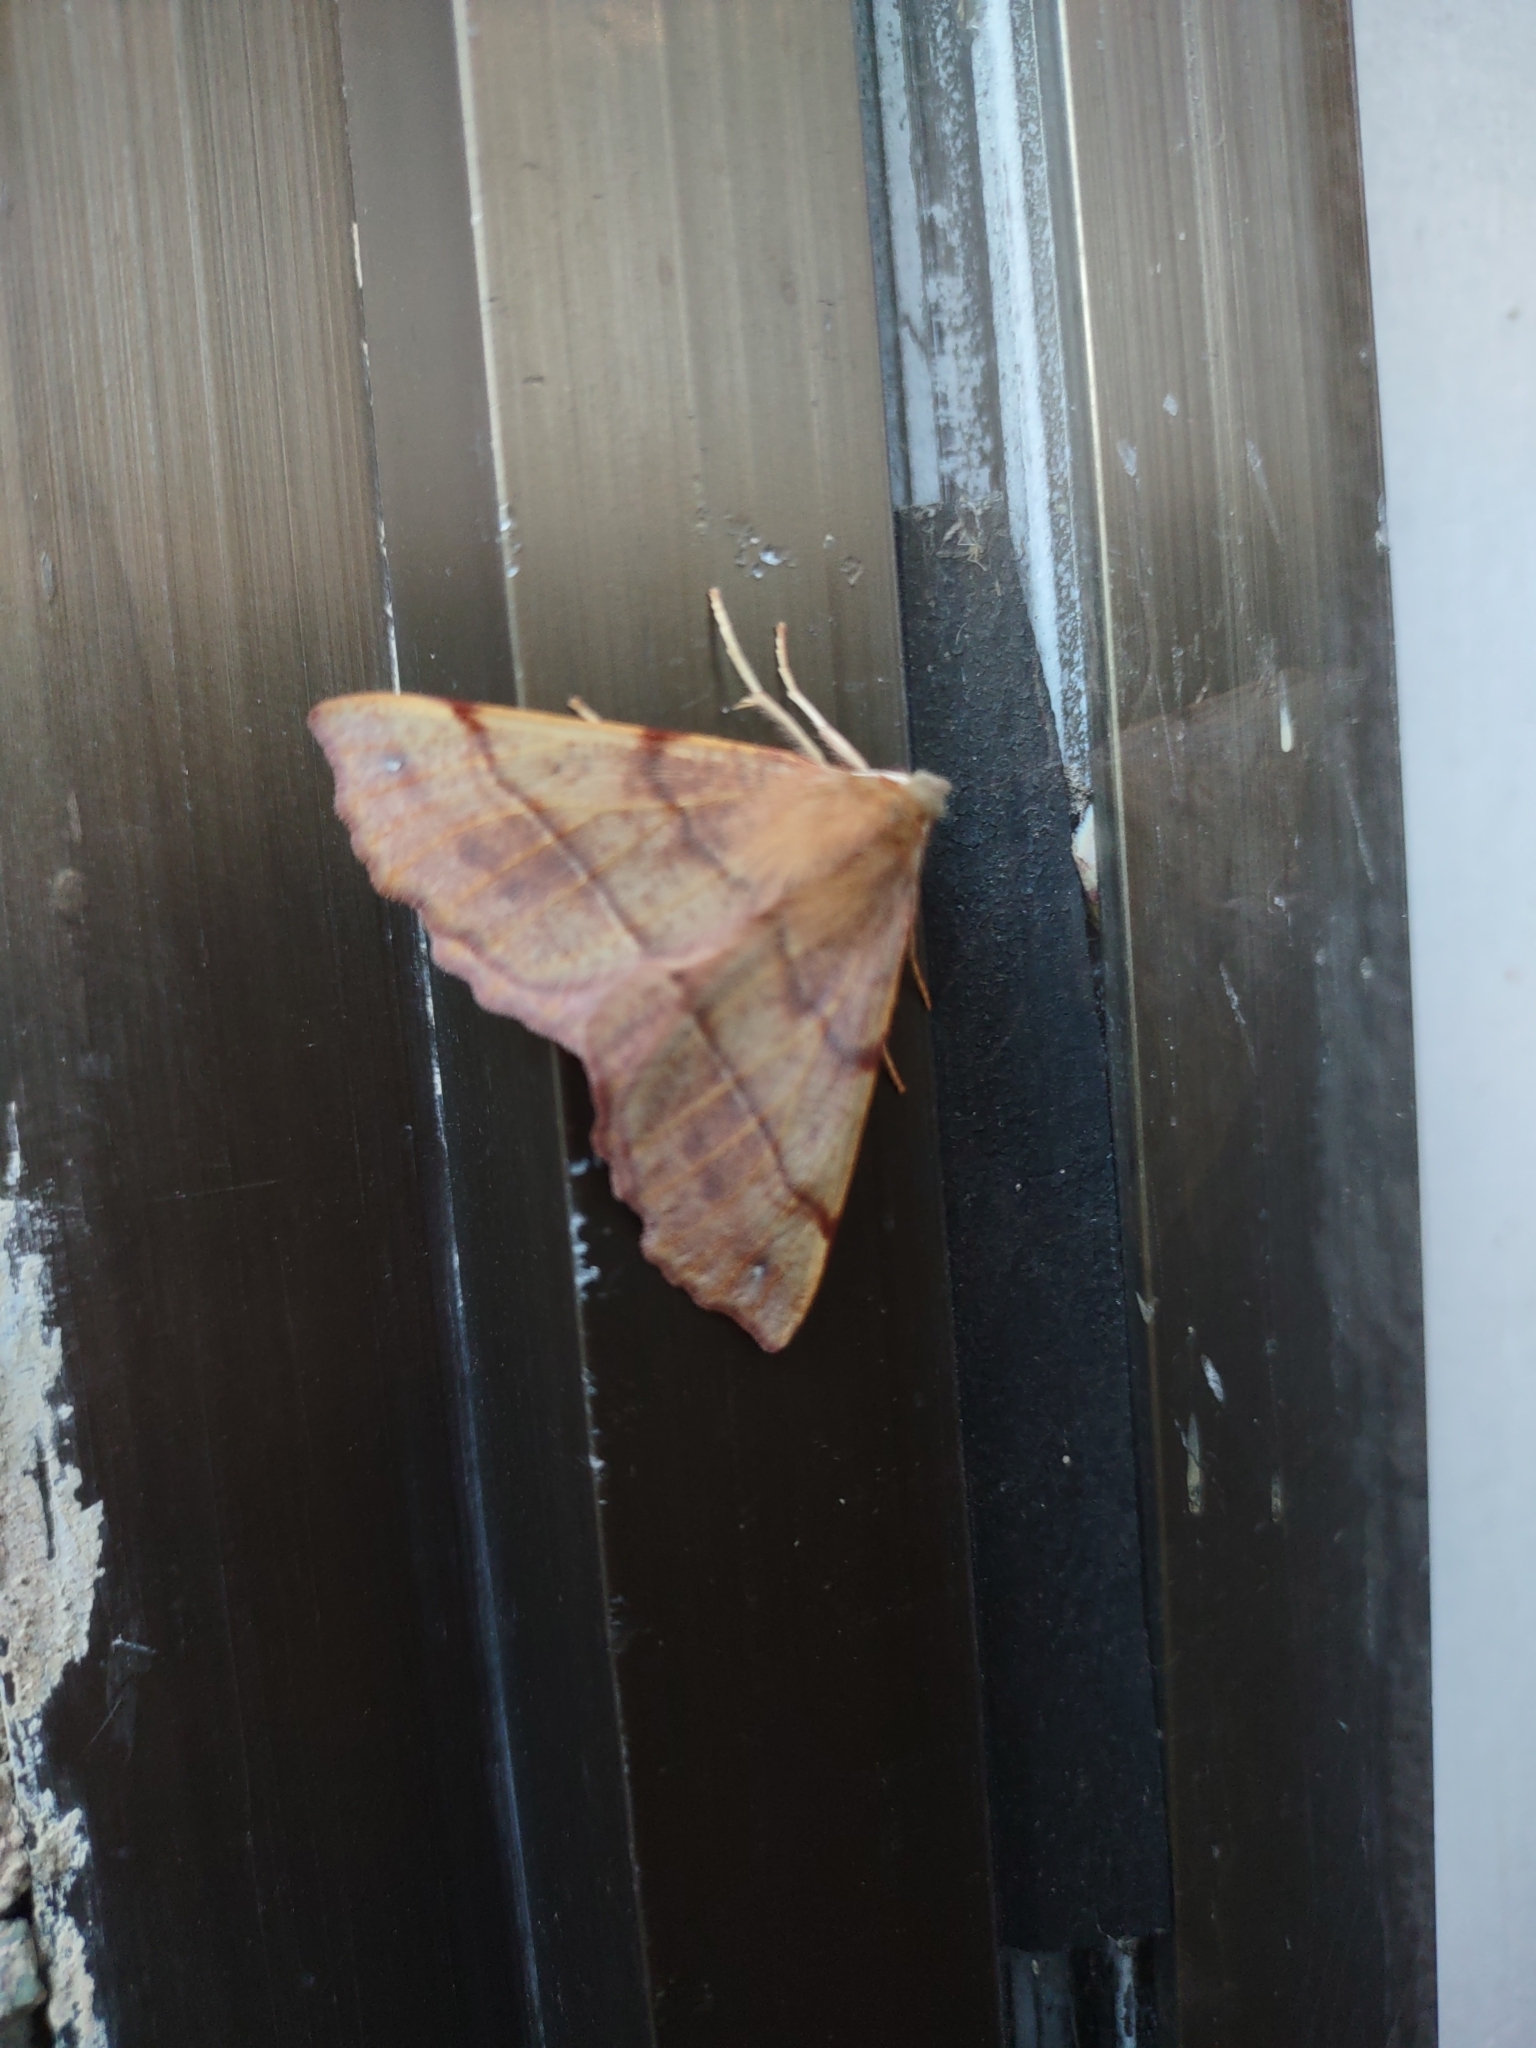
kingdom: Animalia
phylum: Arthropoda
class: Insecta
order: Lepidoptera
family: Geometridae
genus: Colotois
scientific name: Colotois pennaria
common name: Feathered thorn
